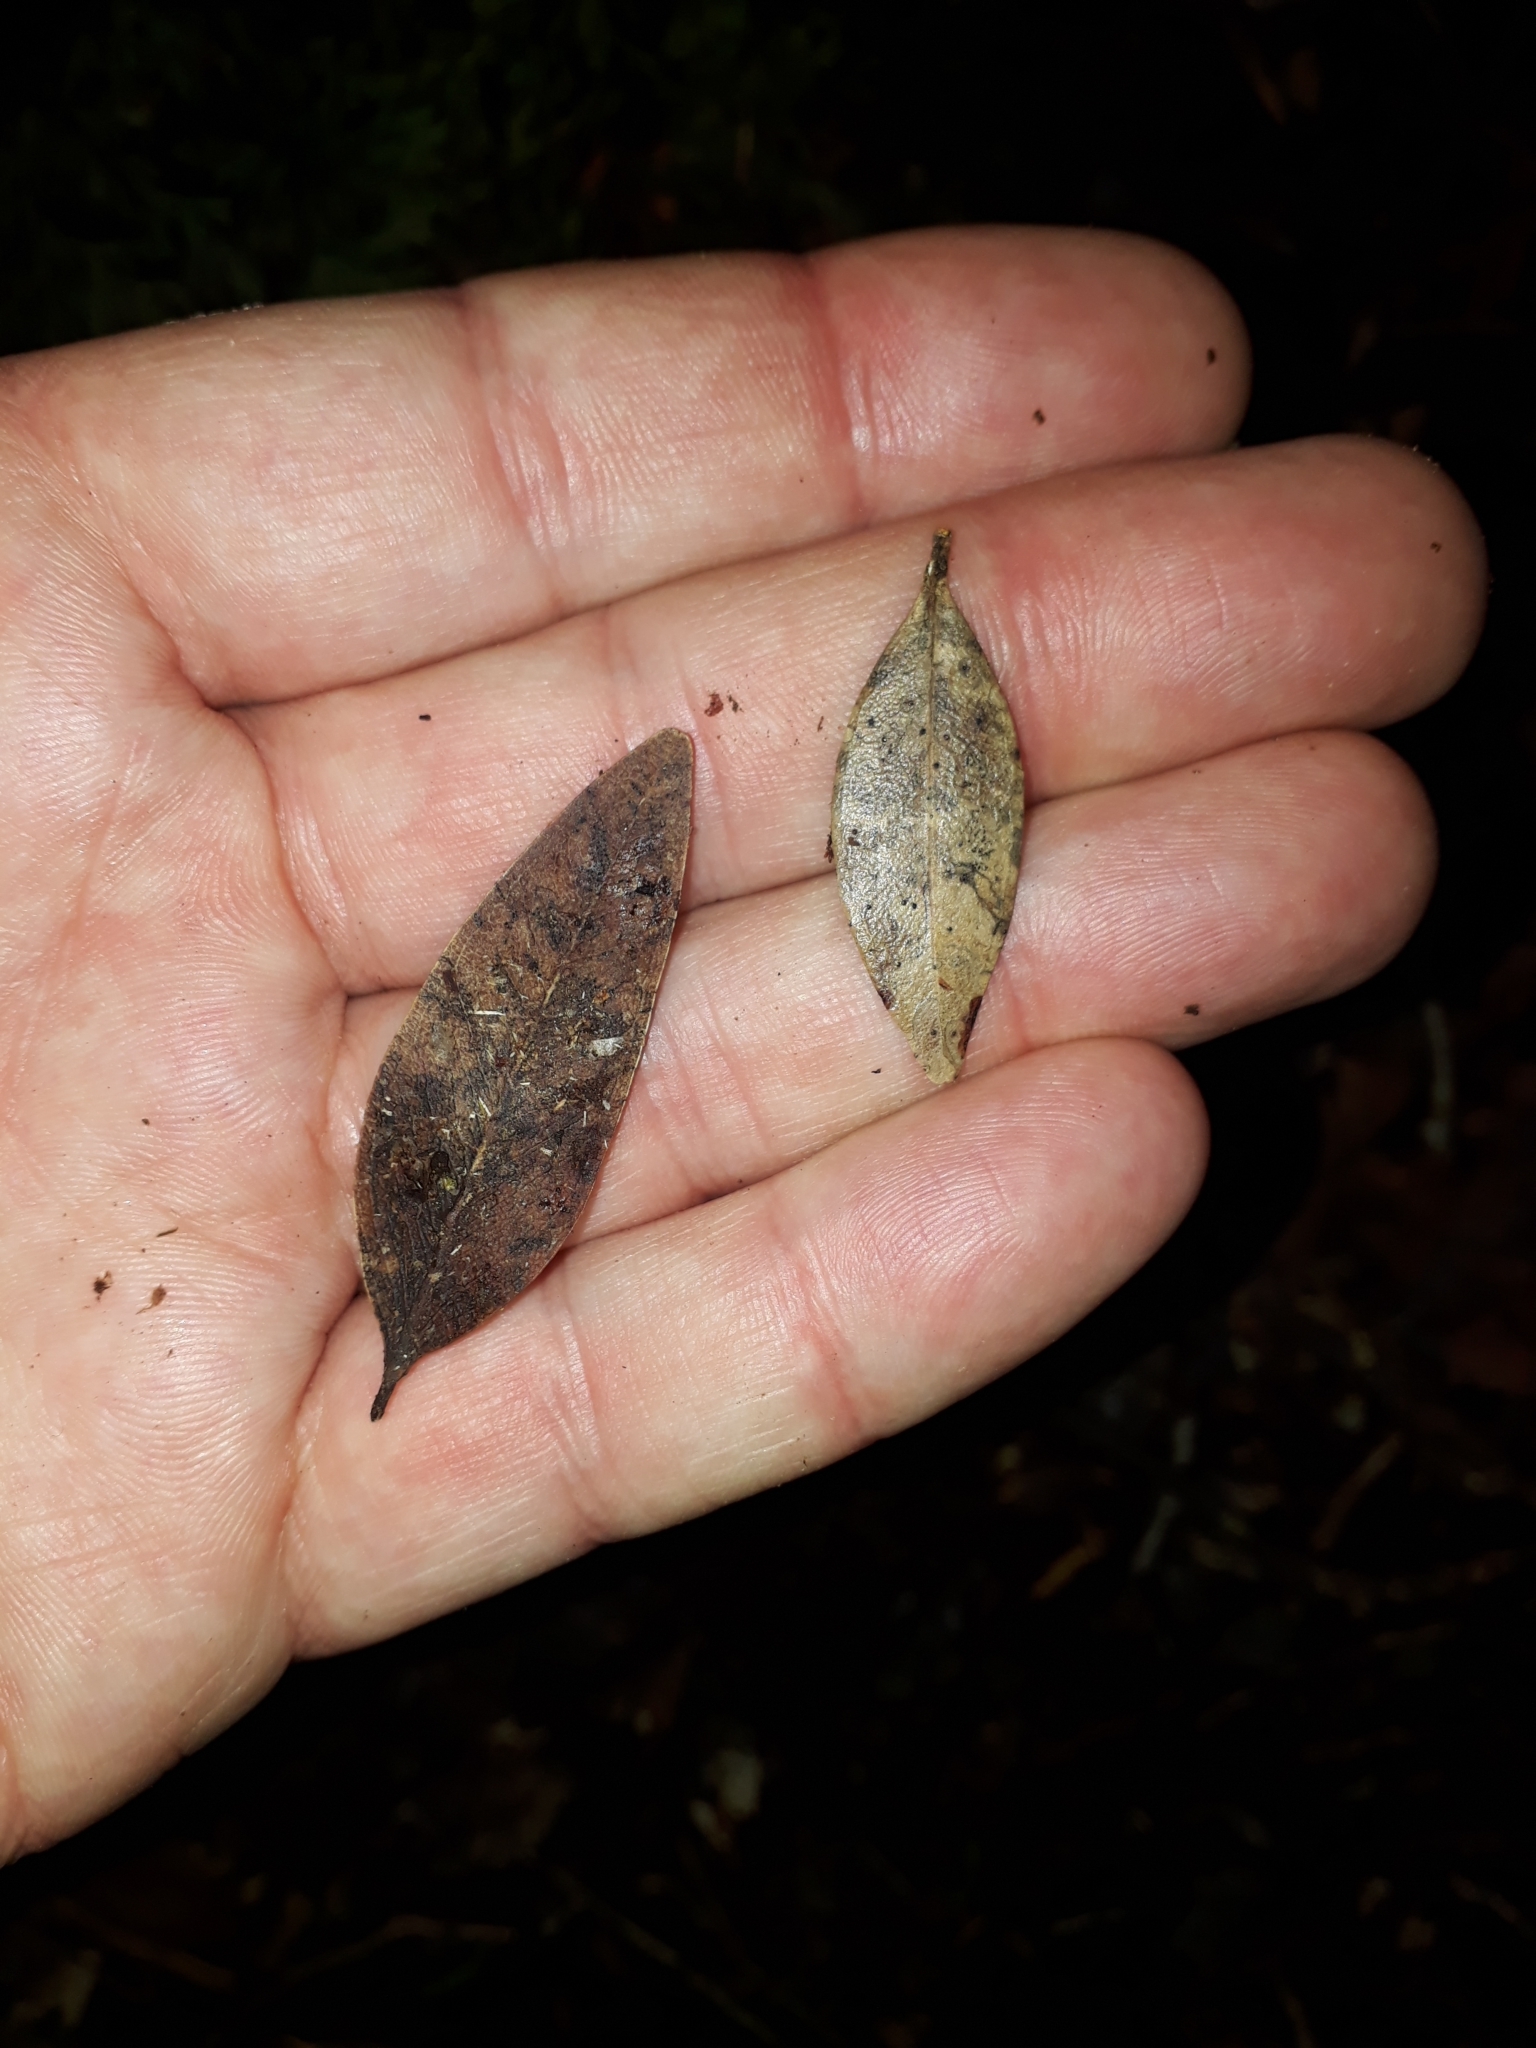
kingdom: Plantae
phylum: Tracheophyta
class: Magnoliopsida
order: Myrtales
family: Myrtaceae
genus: Metrosideros
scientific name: Metrosideros robusta
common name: Northern rata
